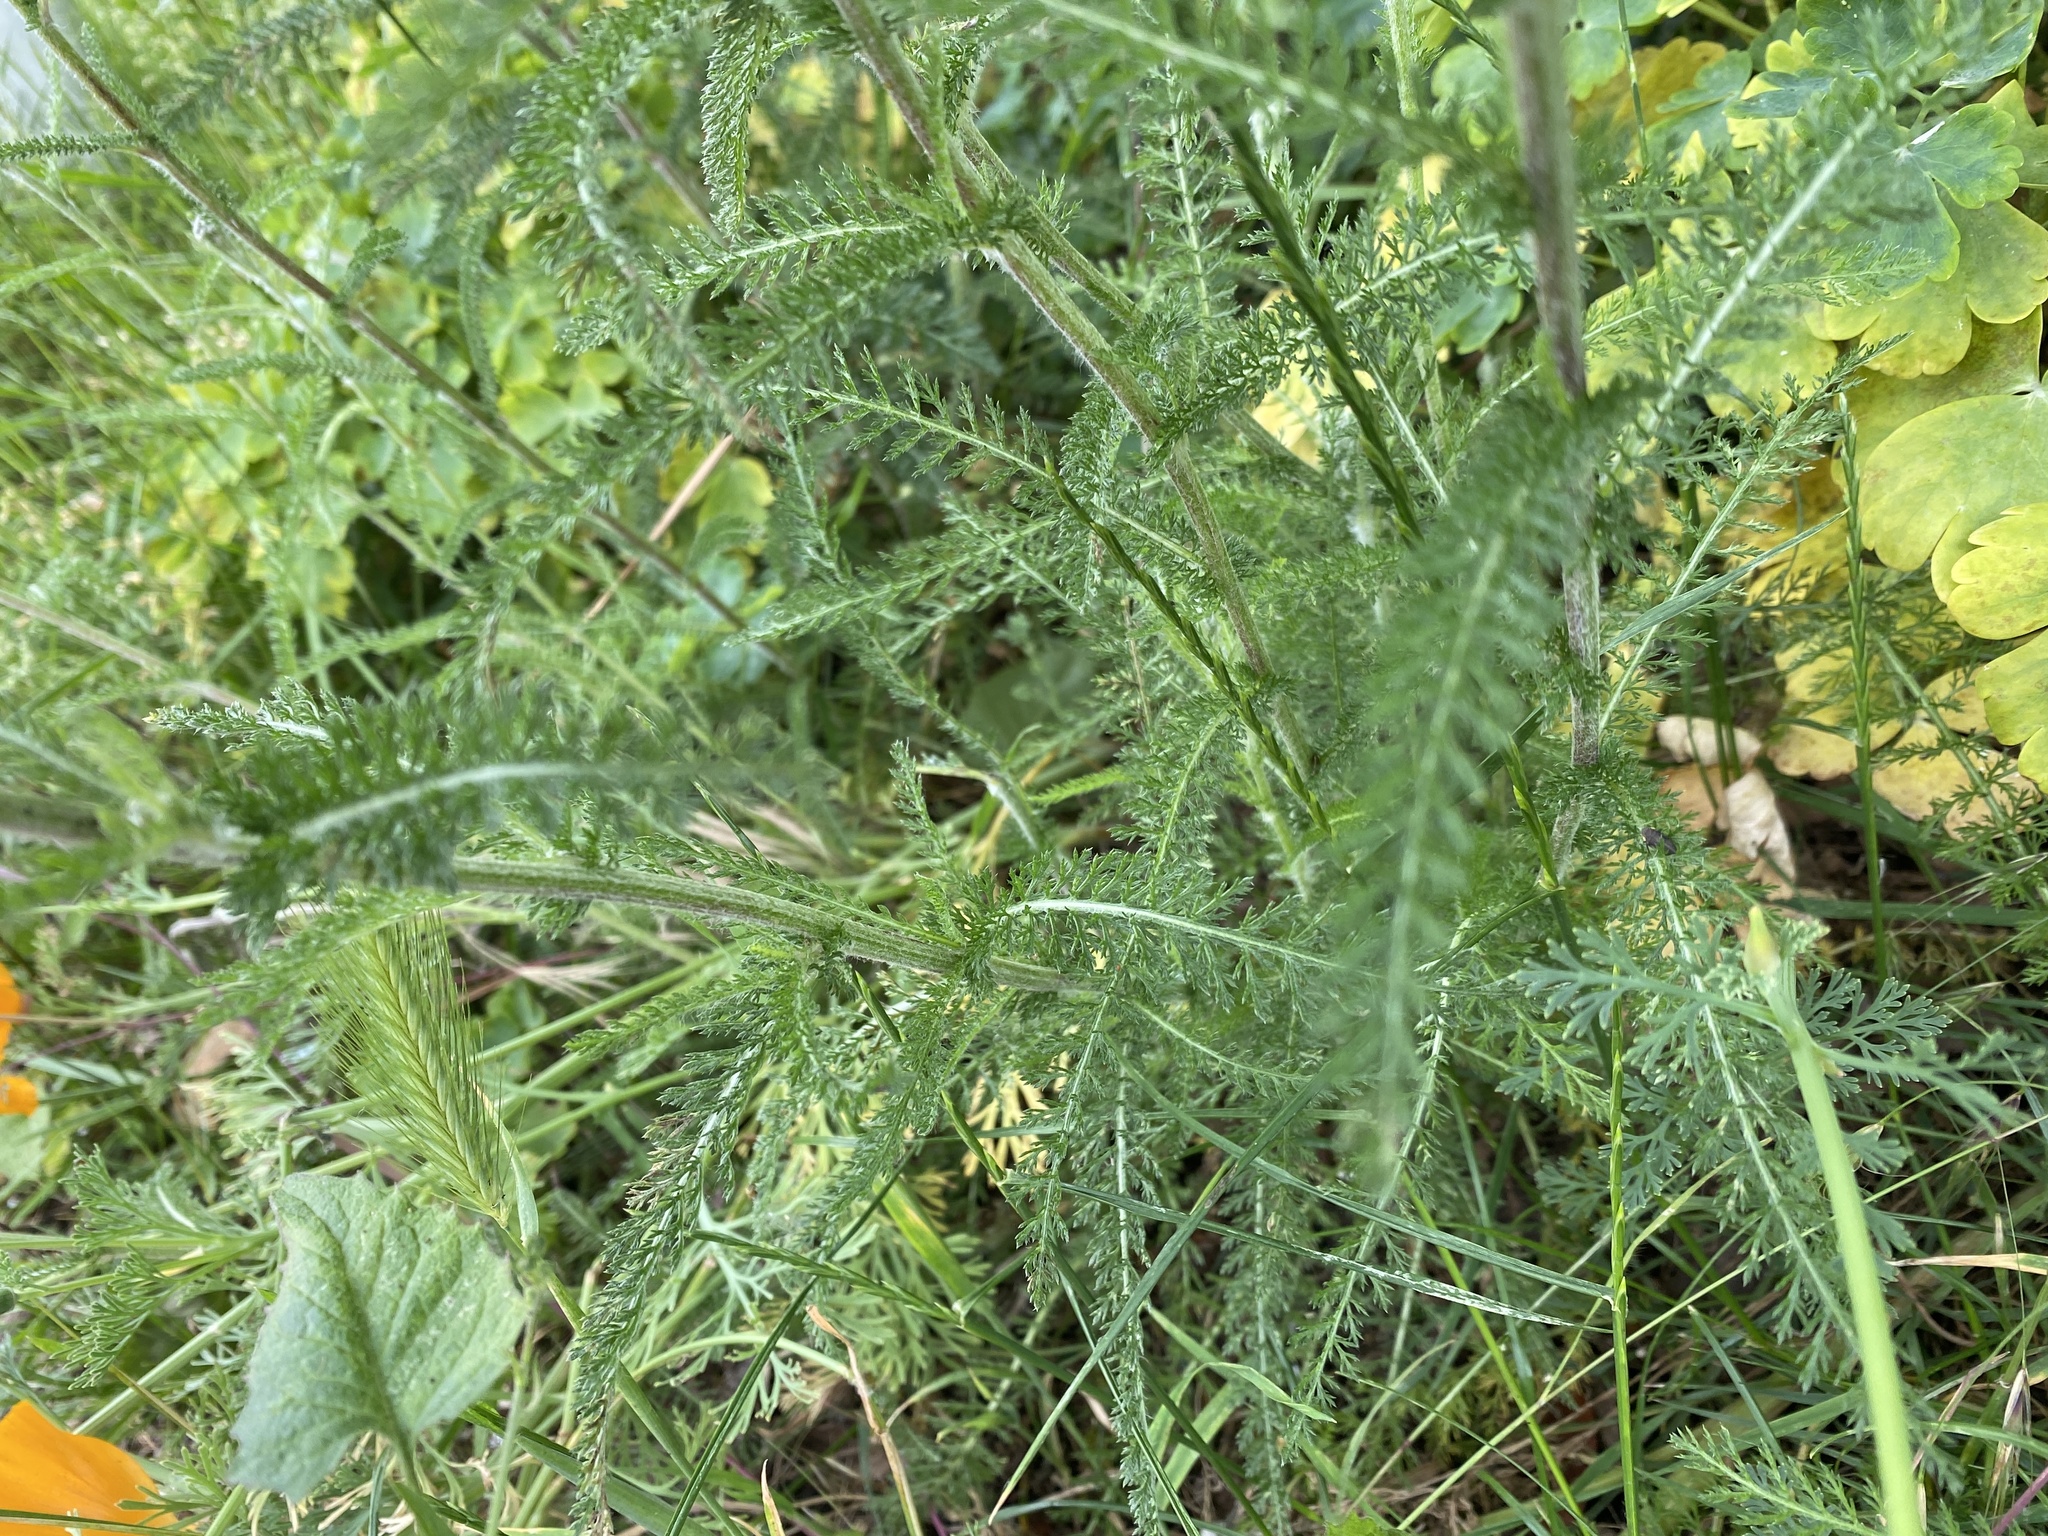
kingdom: Plantae
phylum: Tracheophyta
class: Magnoliopsida
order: Asterales
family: Asteraceae
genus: Achillea
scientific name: Achillea millefolium
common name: Yarrow
